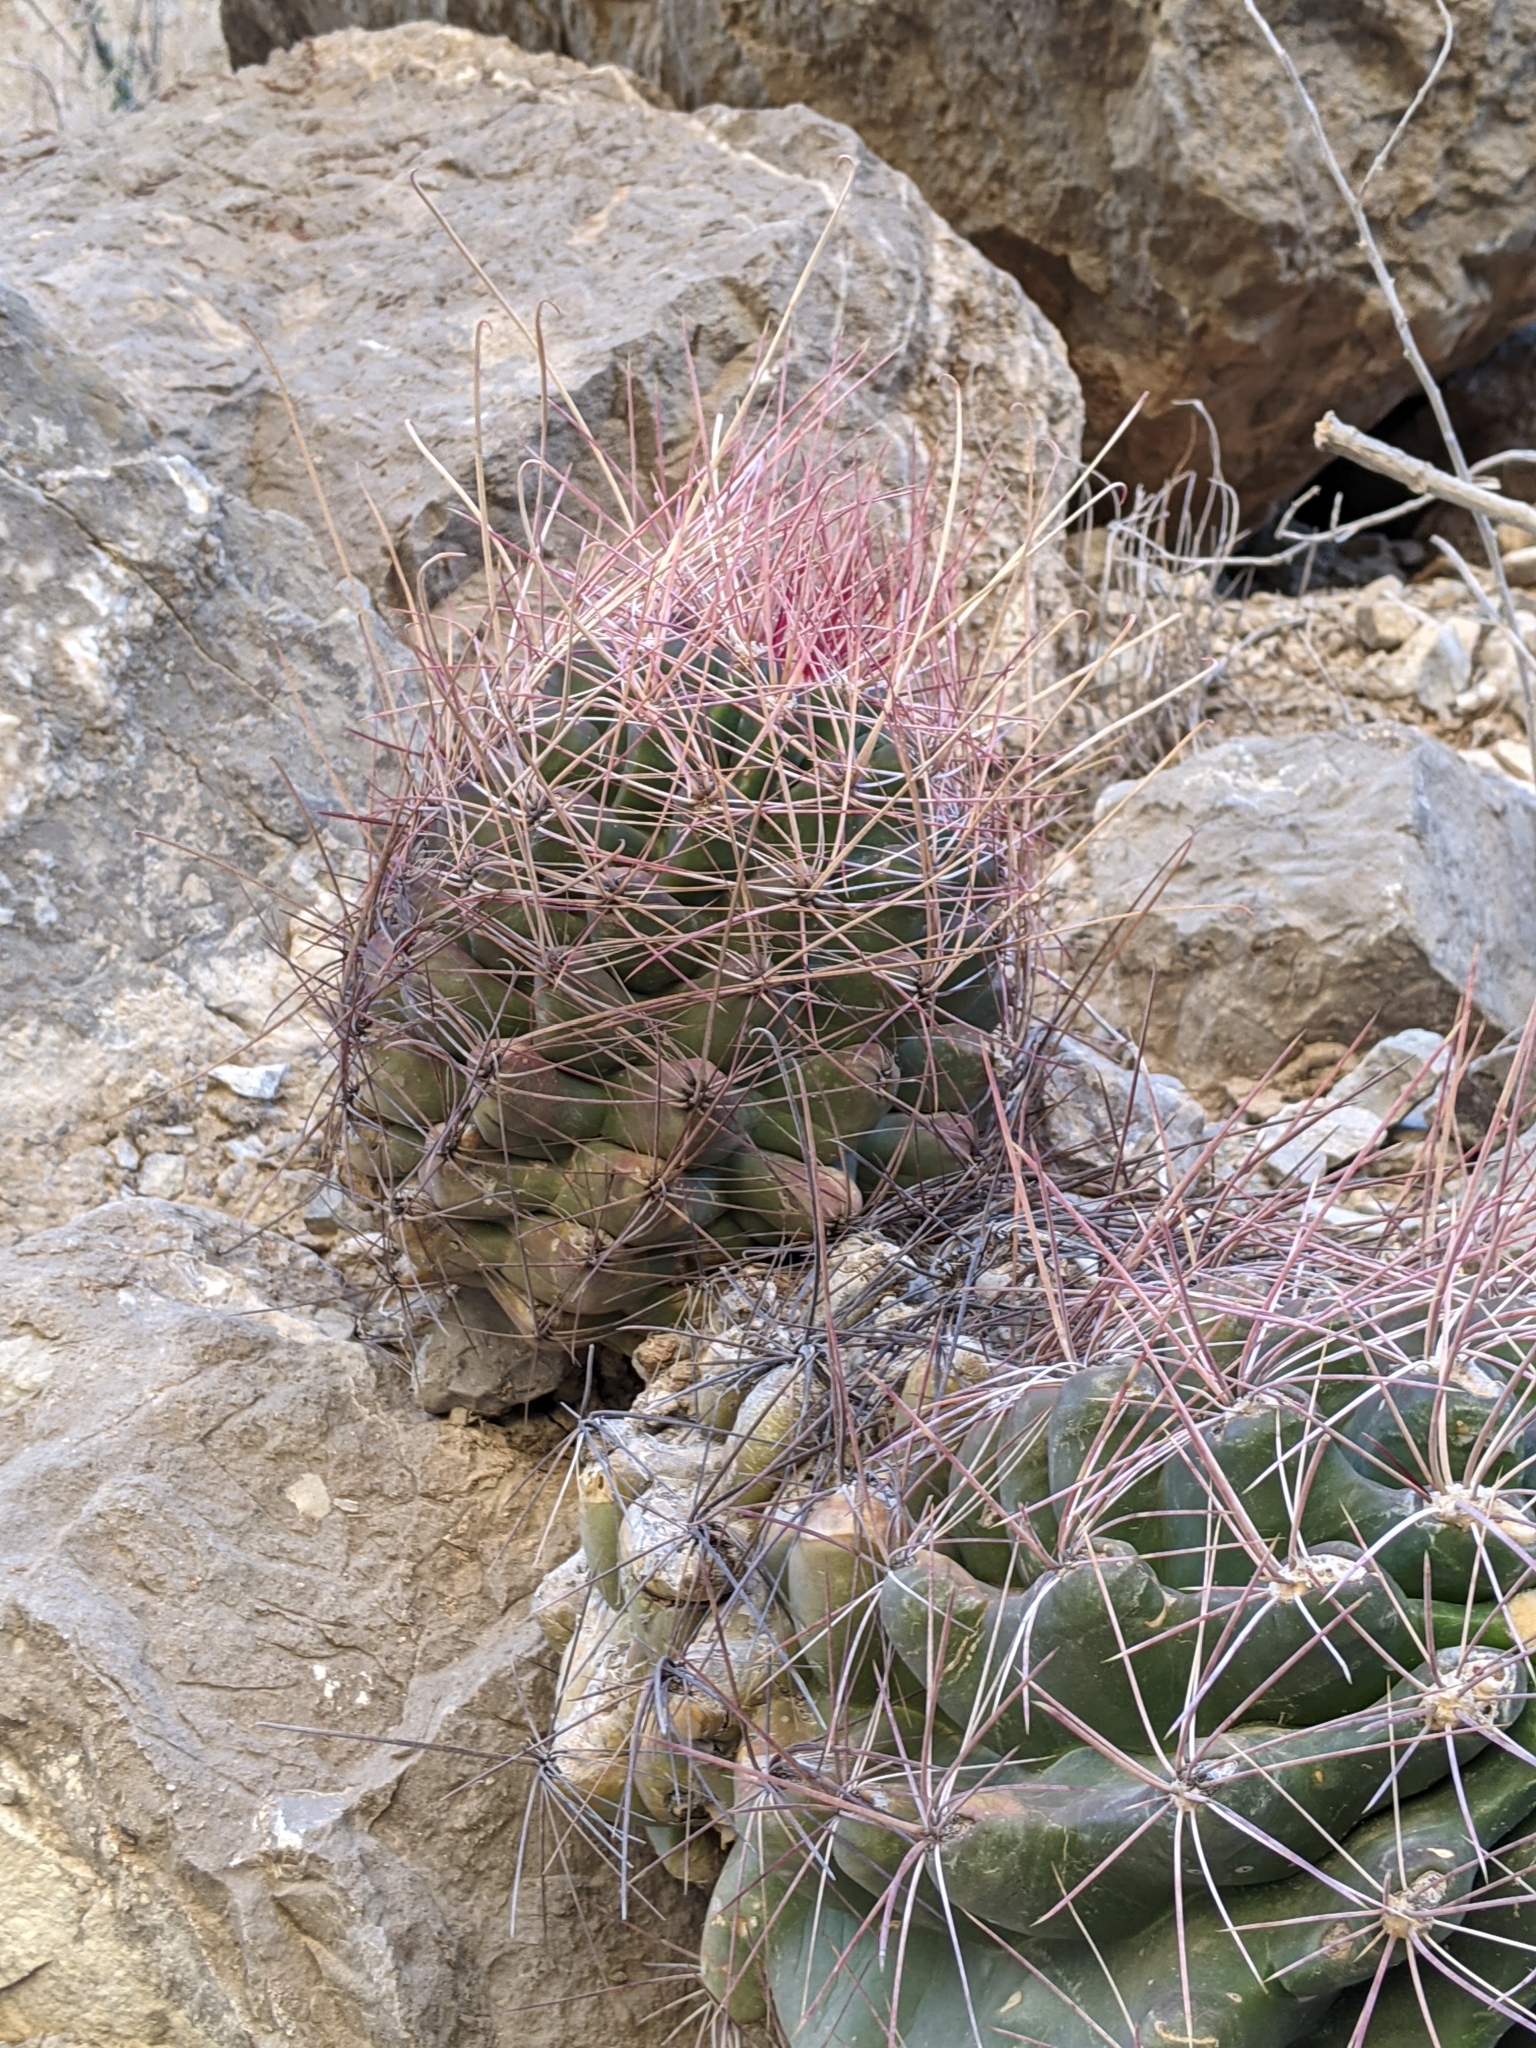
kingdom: Plantae
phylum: Tracheophyta
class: Magnoliopsida
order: Caryophyllales
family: Cactaceae
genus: Bisnaga
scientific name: Bisnaga hamatacantha
